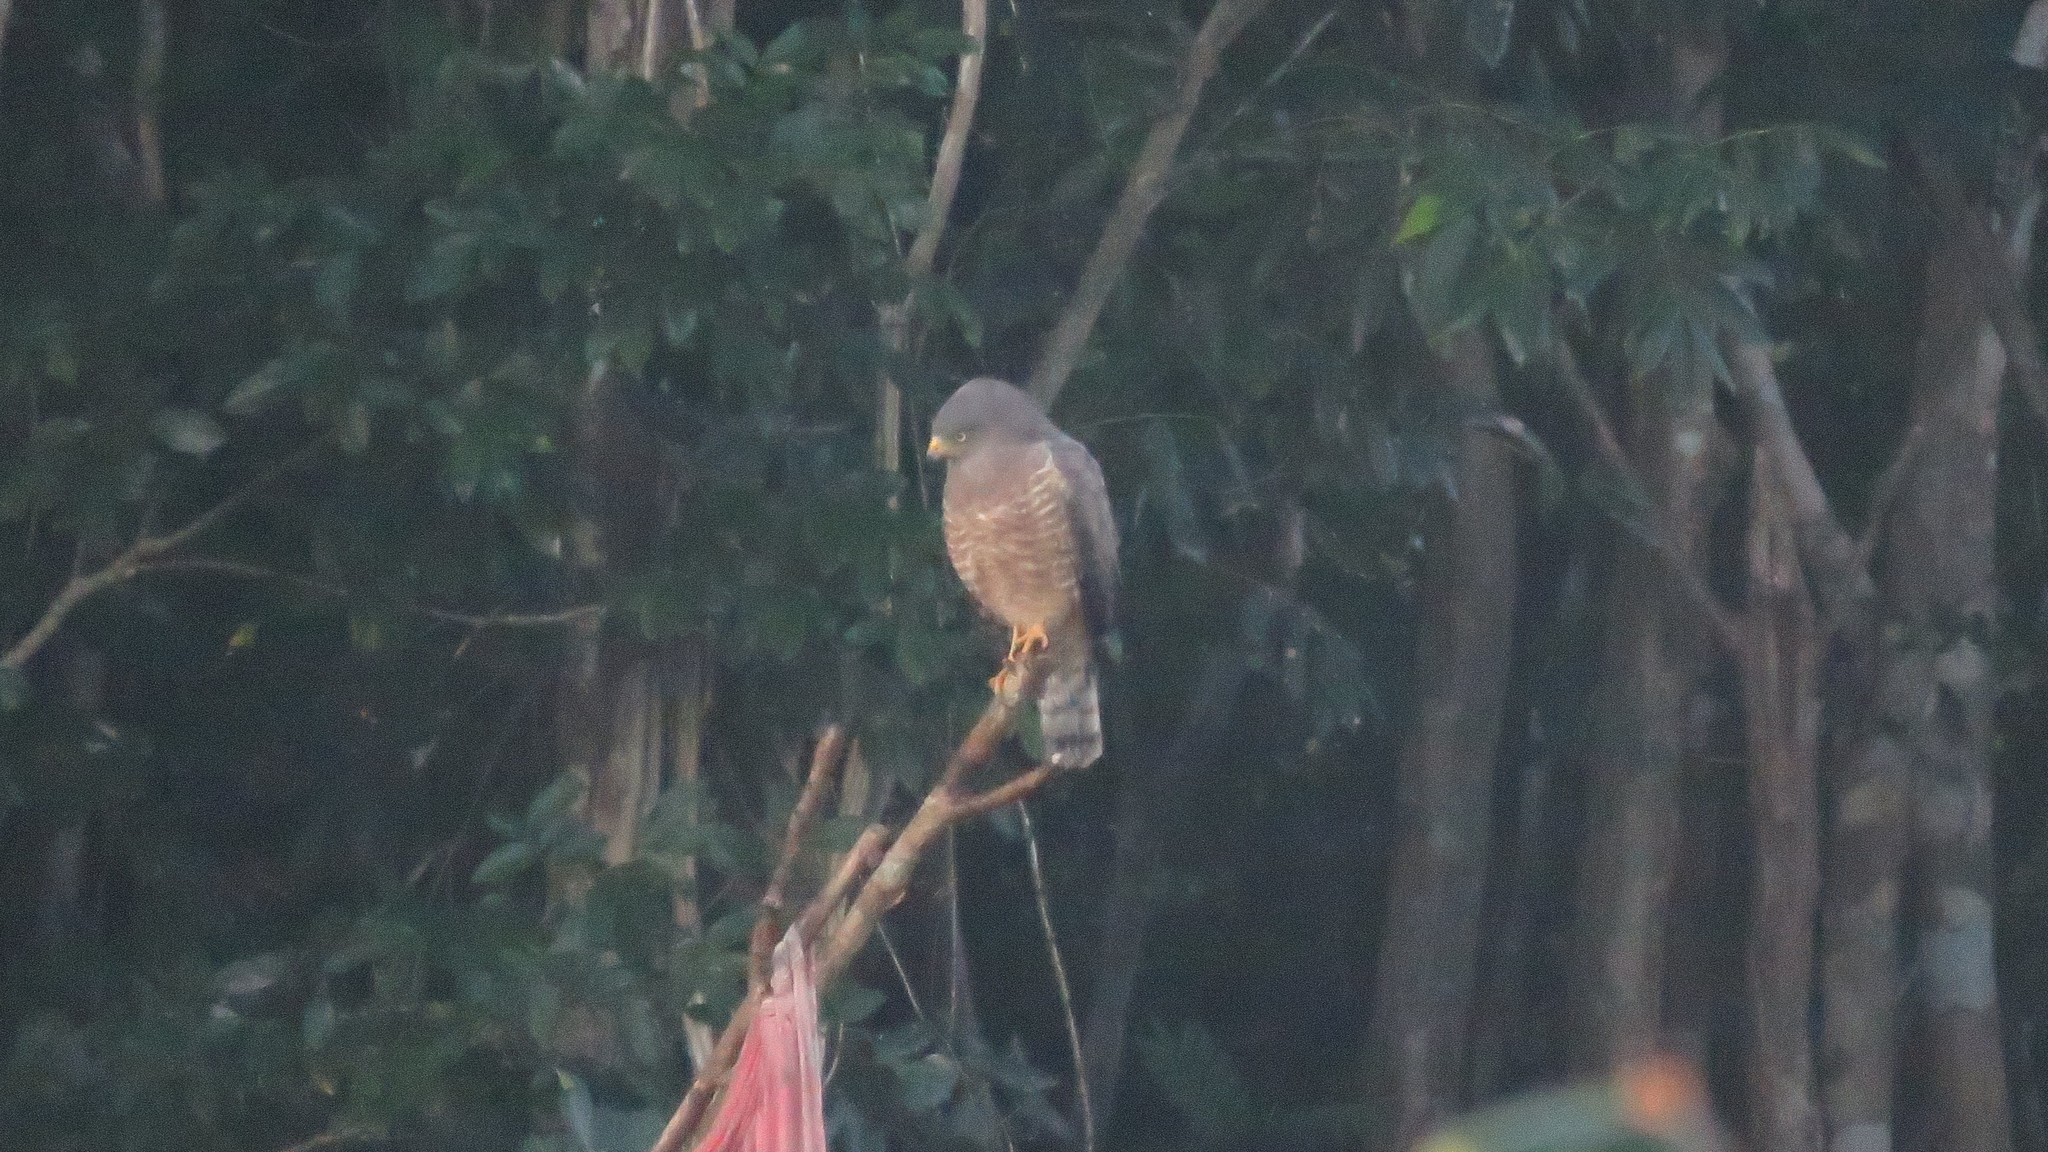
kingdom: Animalia
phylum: Chordata
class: Aves
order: Accipitriformes
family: Accipitridae
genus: Rupornis
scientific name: Rupornis magnirostris
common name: Roadside hawk
